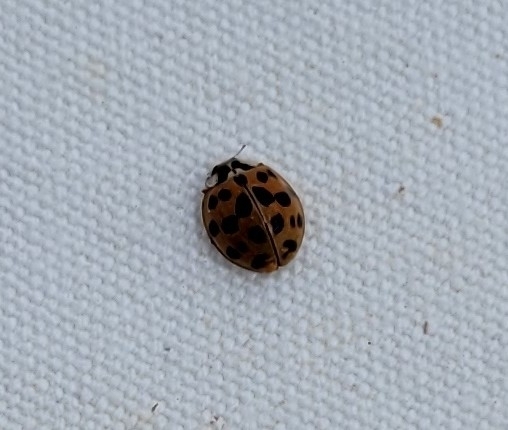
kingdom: Animalia
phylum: Arthropoda
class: Insecta
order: Coleoptera
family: Coccinellidae
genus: Harmonia
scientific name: Harmonia axyridis
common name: Harlequin ladybird
